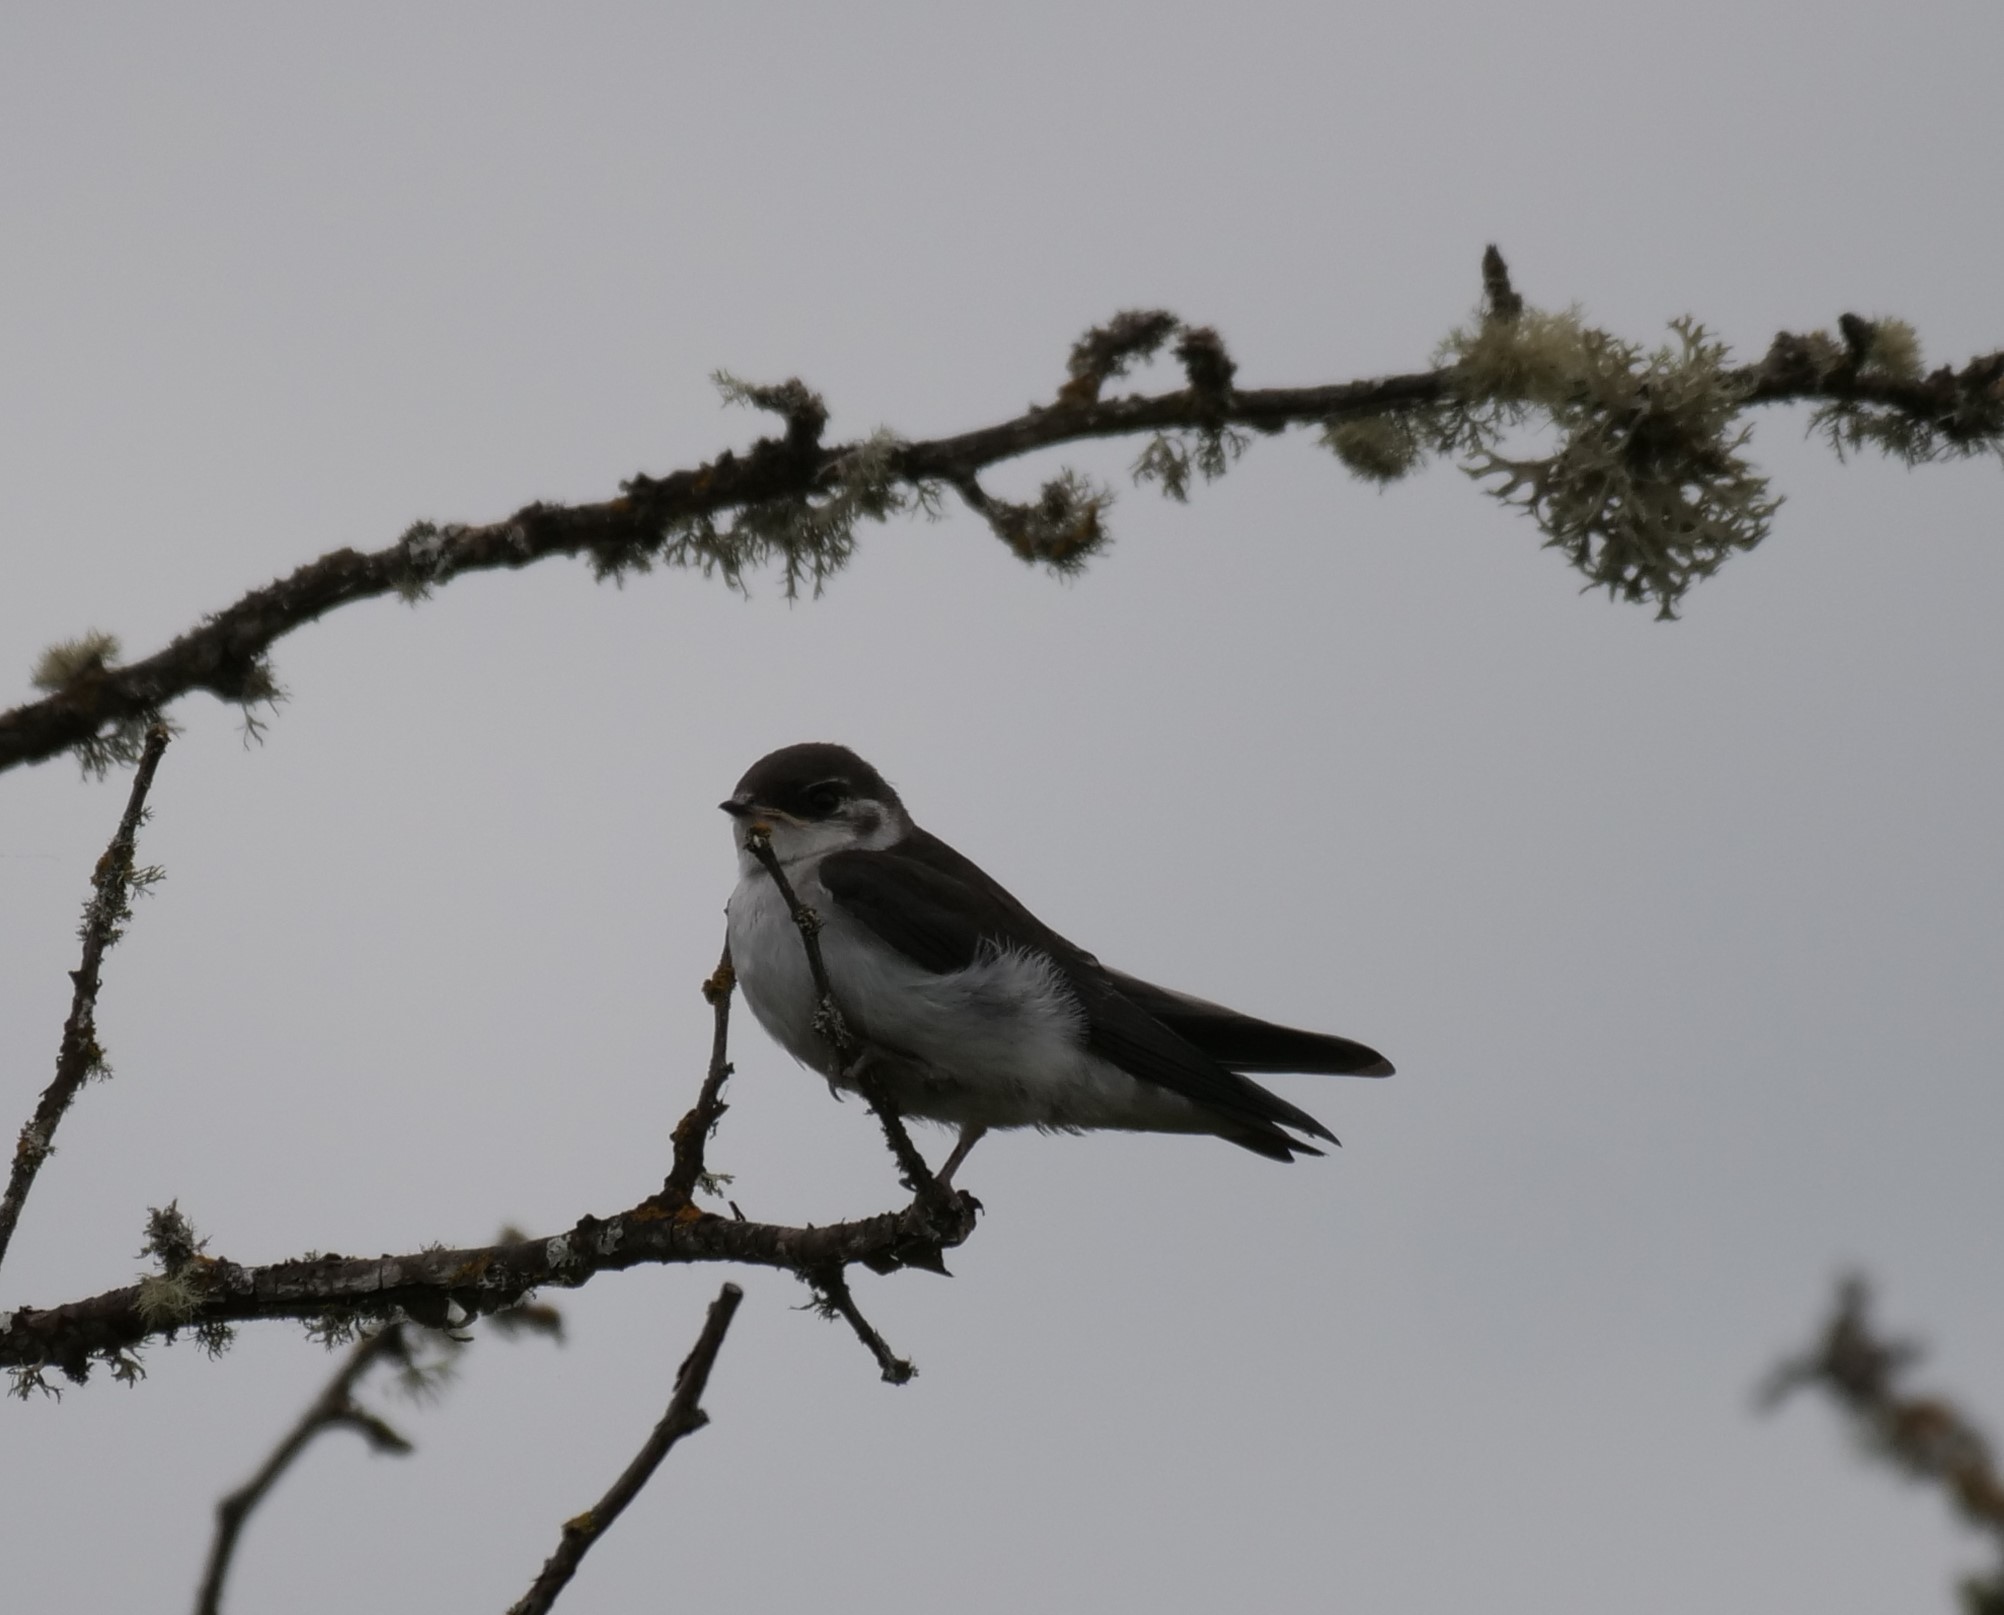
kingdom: Animalia
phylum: Chordata
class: Aves
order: Passeriformes
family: Hirundinidae
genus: Tachycineta
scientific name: Tachycineta thalassina
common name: Violet-green swallow
